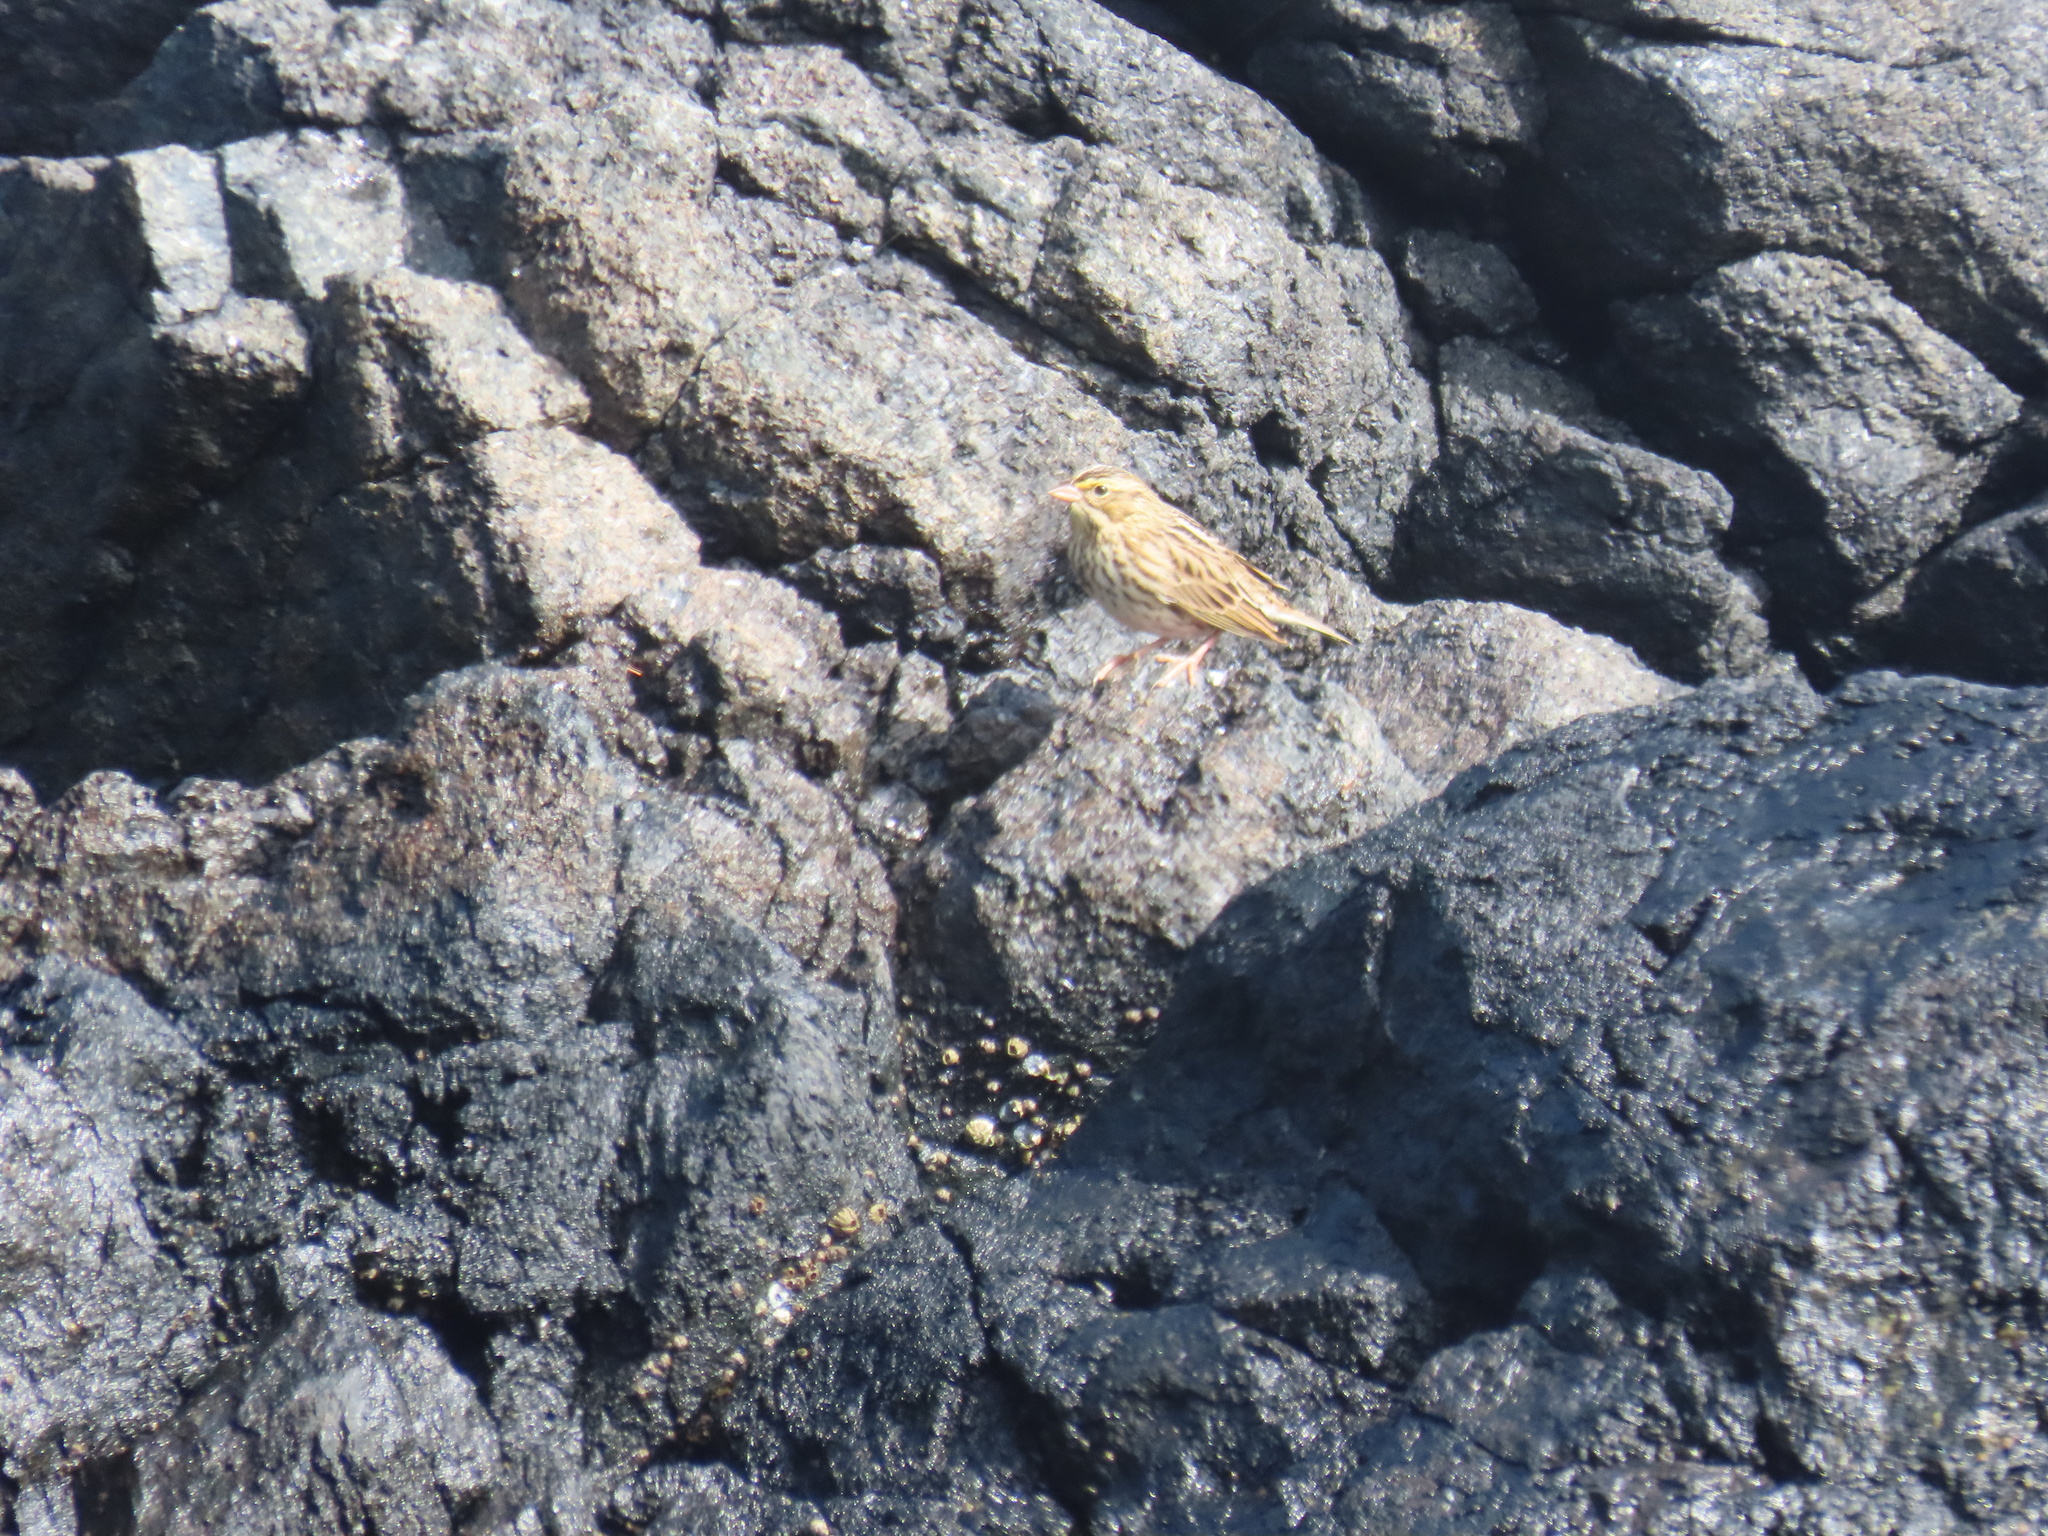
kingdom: Animalia
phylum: Chordata
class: Aves
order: Passeriformes
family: Passerellidae
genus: Passerculus
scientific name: Passerculus sandwichensis
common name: Savannah sparrow
